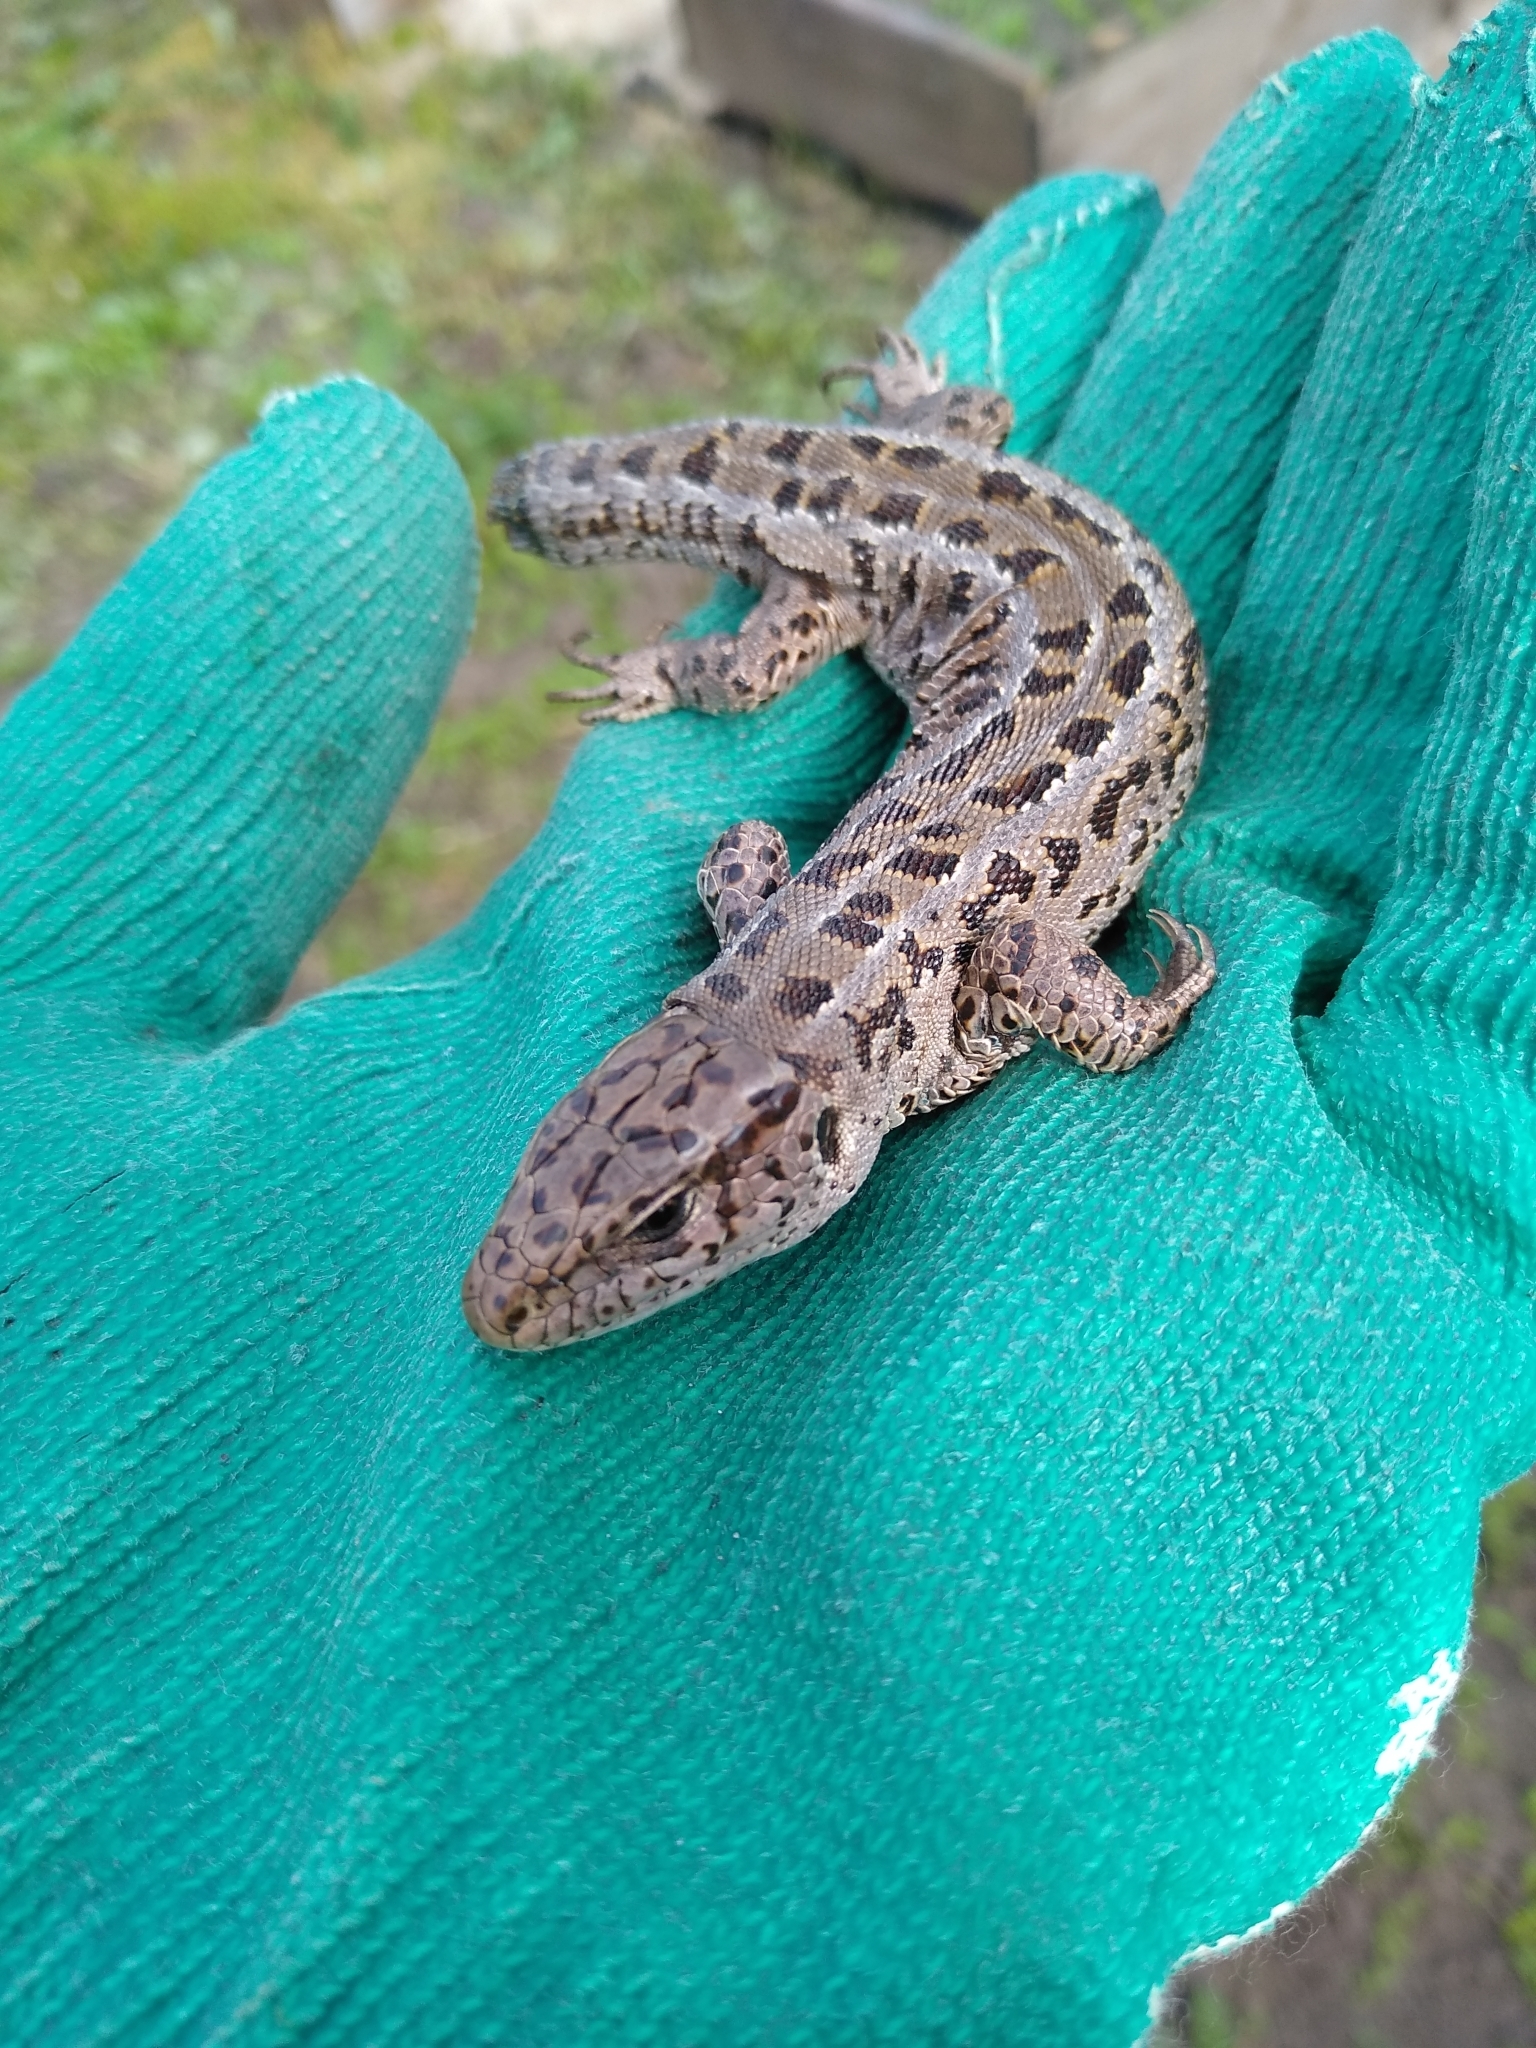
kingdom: Animalia
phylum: Chordata
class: Squamata
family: Lacertidae
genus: Lacerta
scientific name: Lacerta agilis
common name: Sand lizard
